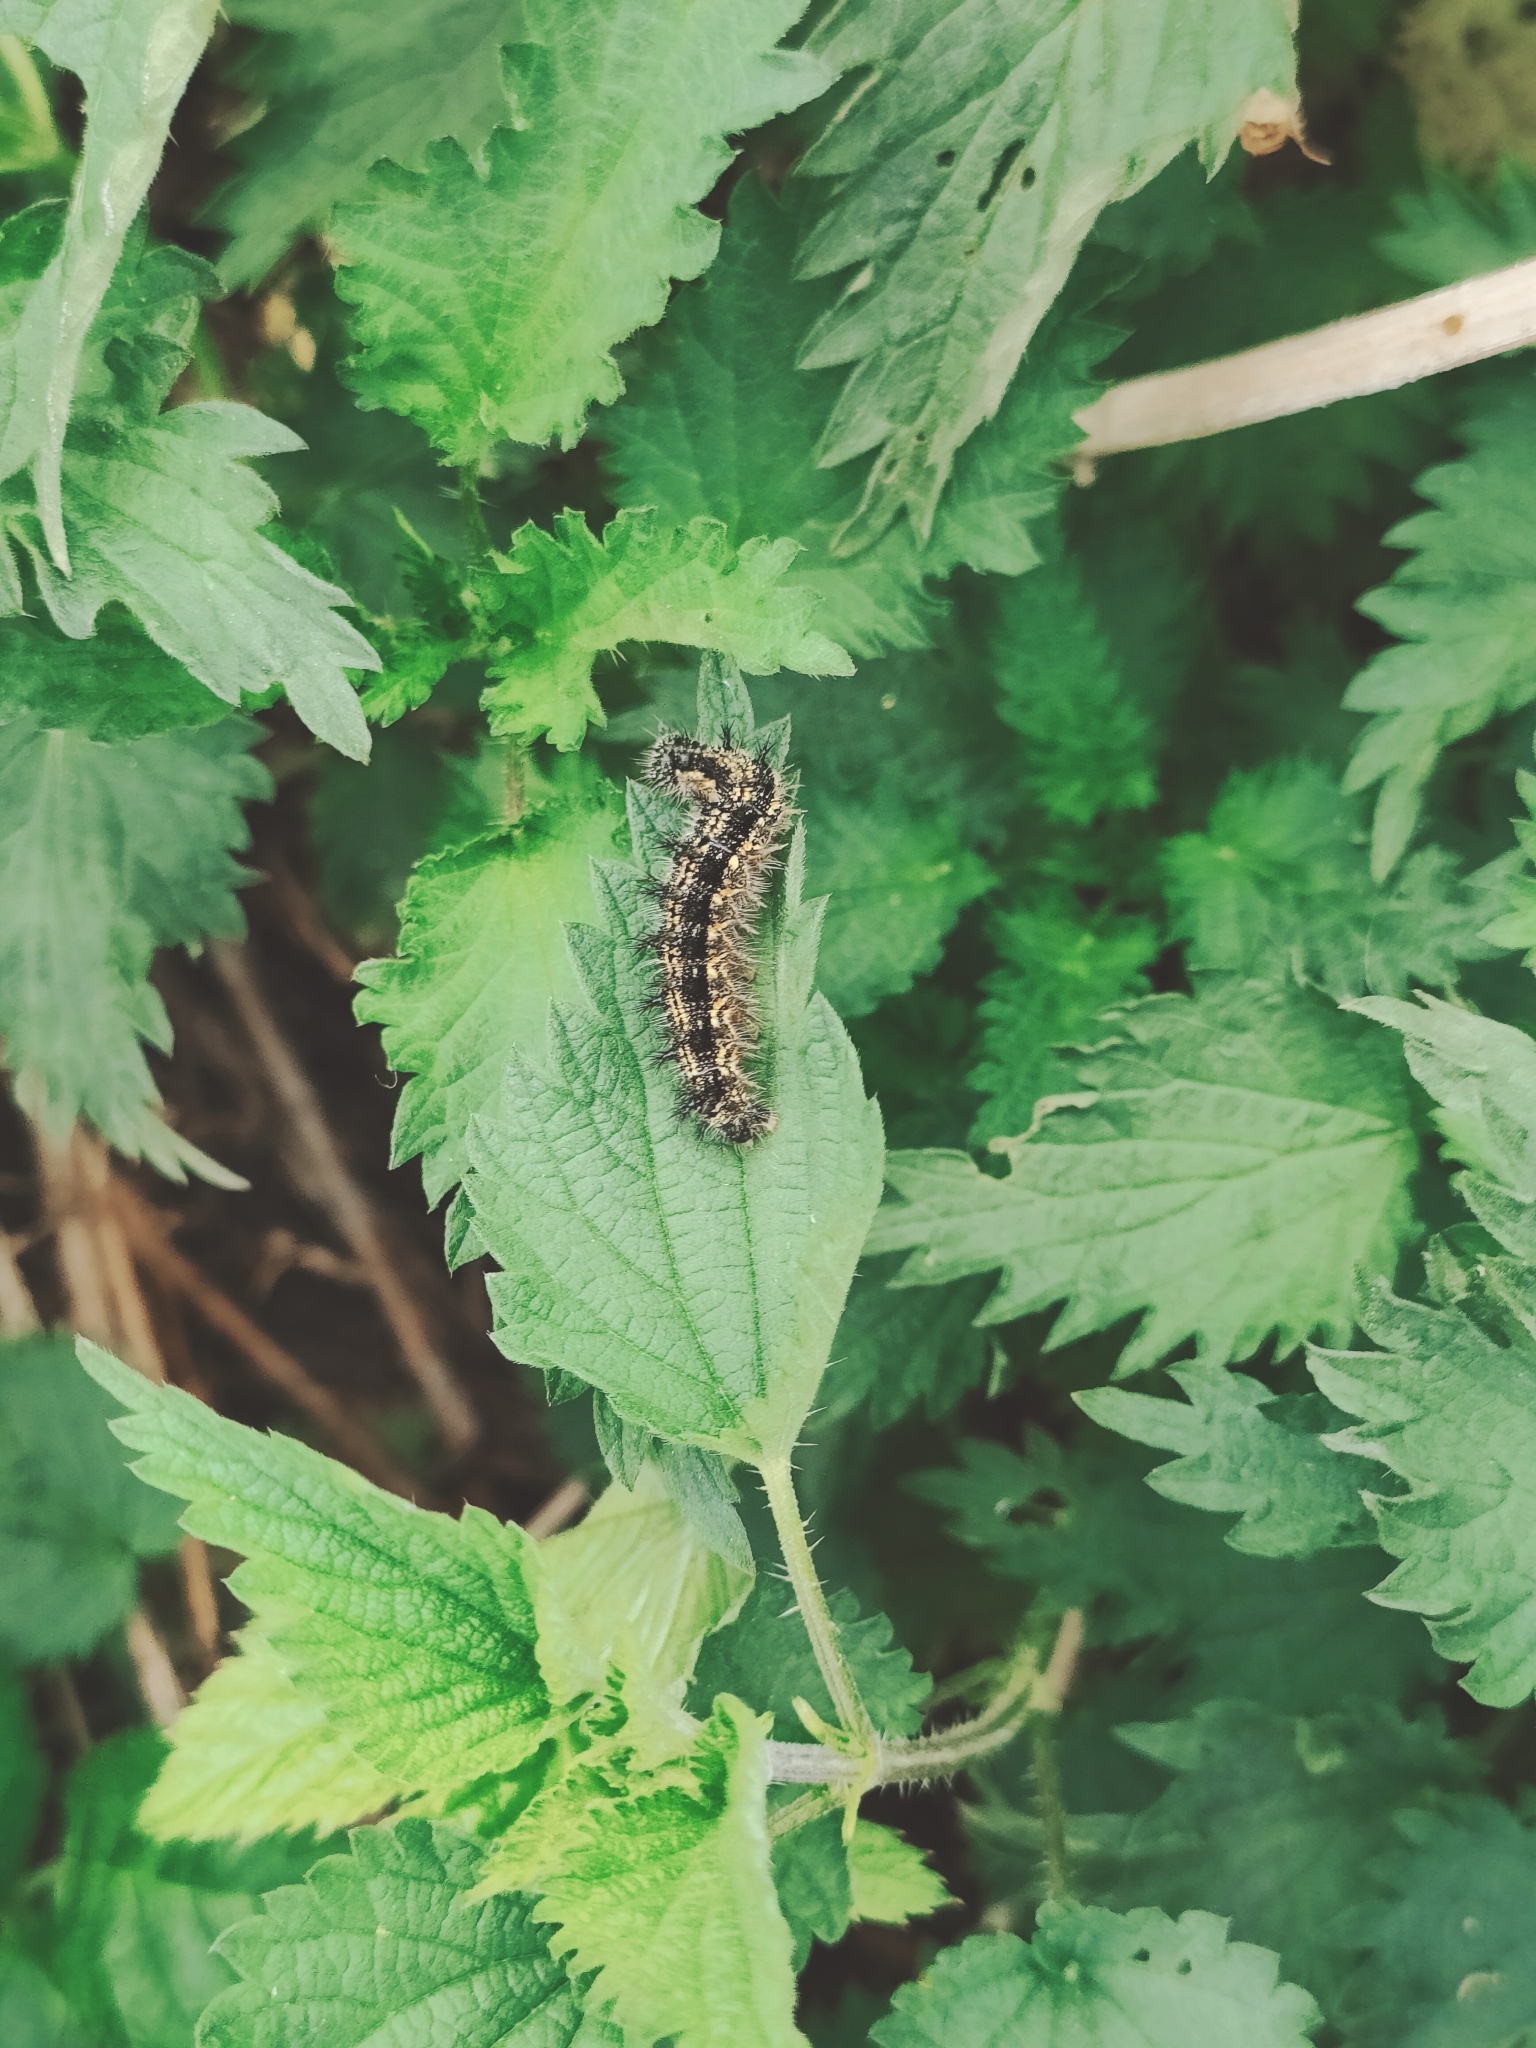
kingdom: Animalia
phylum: Arthropoda
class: Insecta
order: Lepidoptera
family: Nymphalidae
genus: Aglais
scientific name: Aglais urticae
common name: Small tortoiseshell
